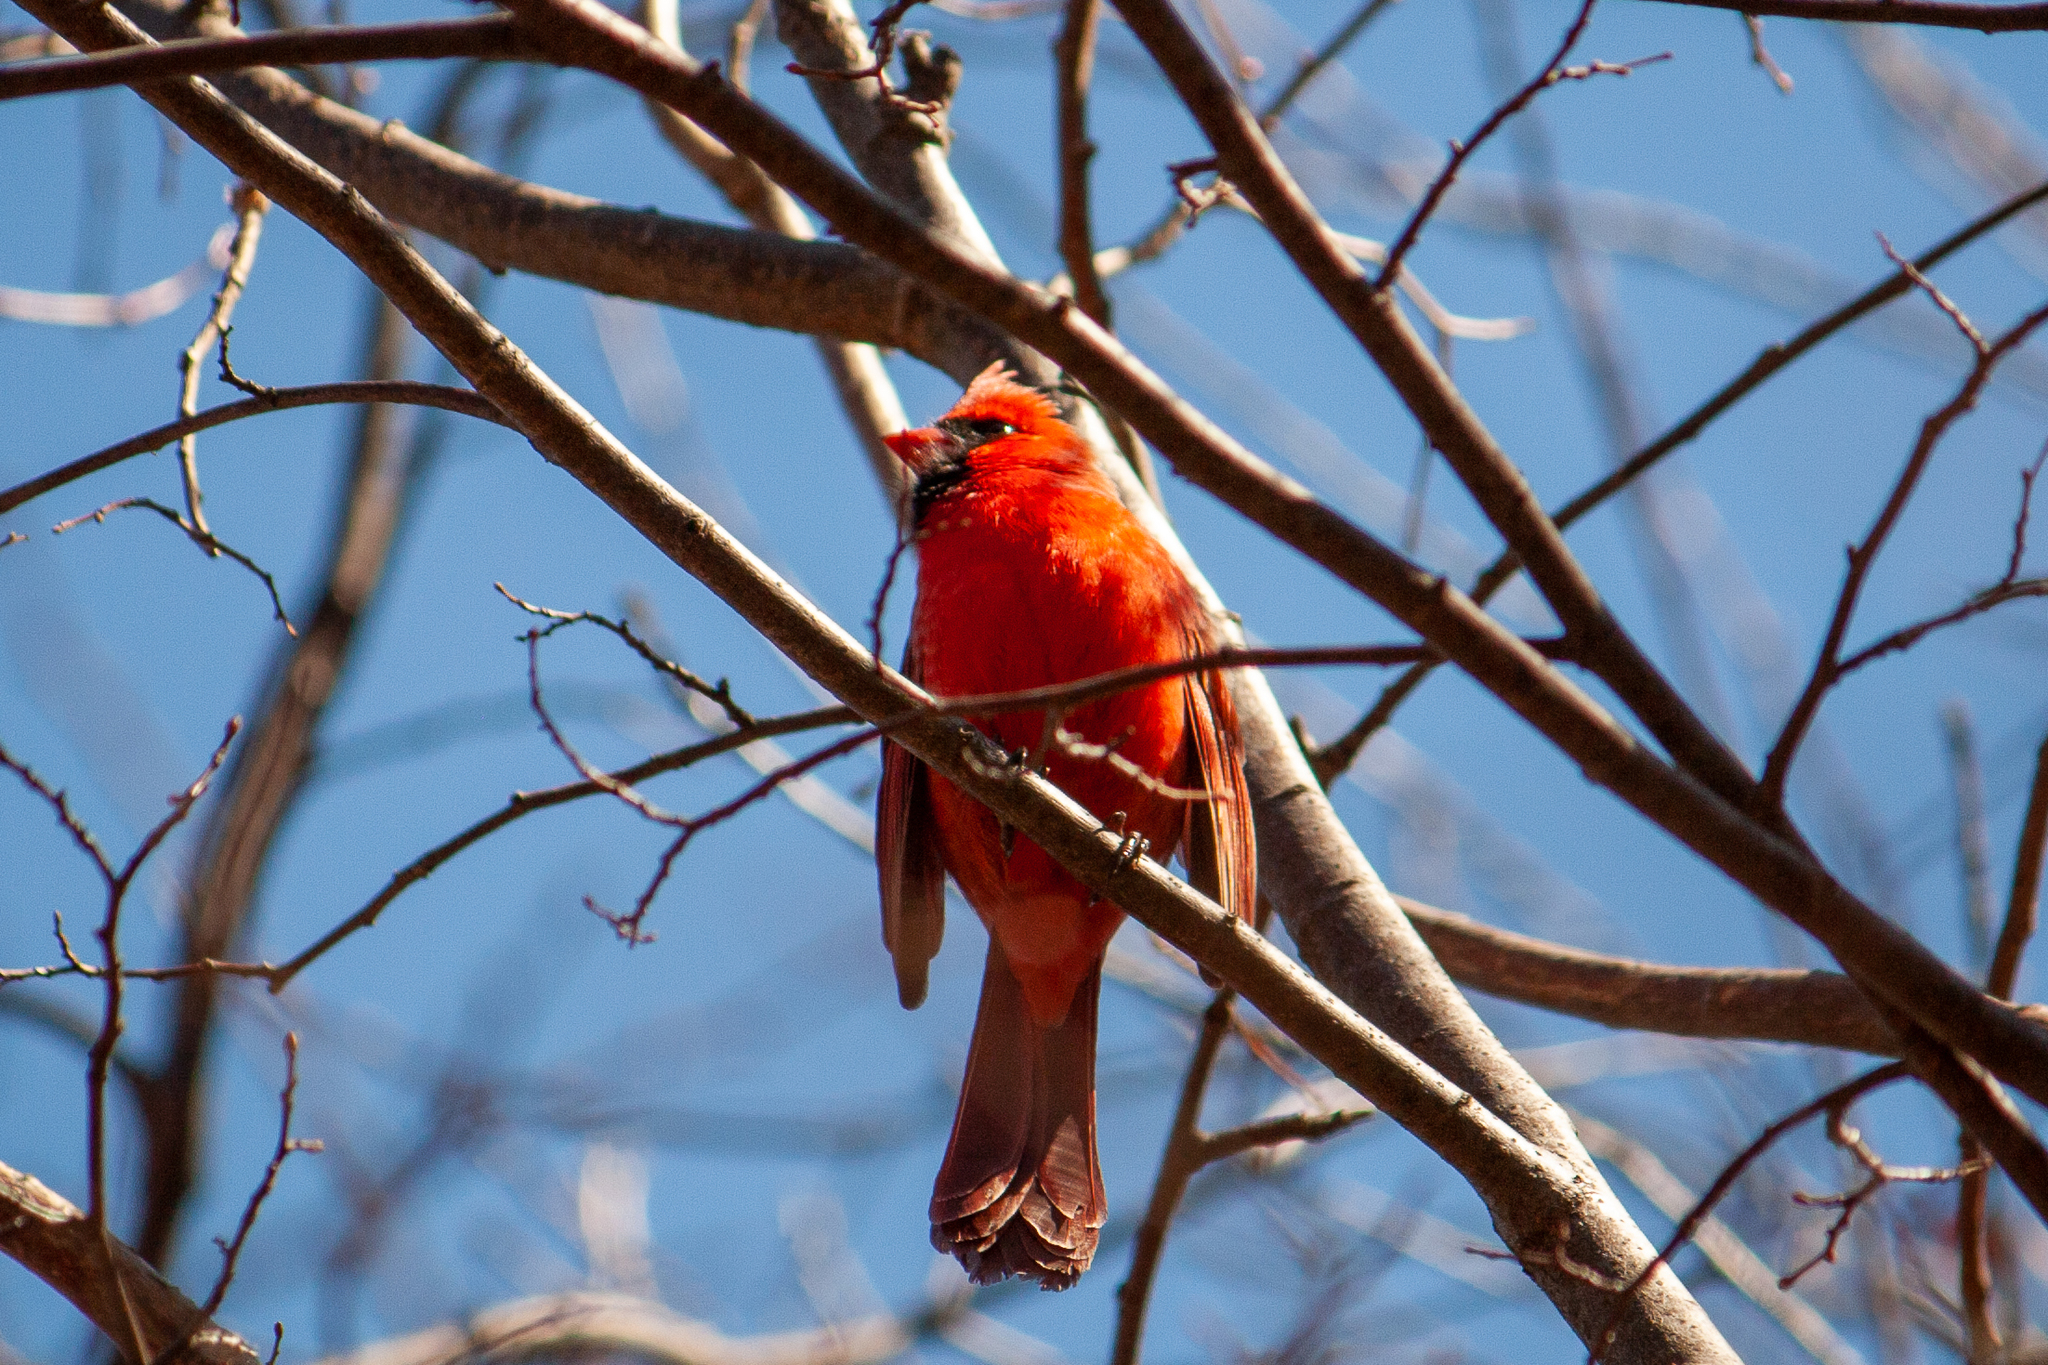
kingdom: Animalia
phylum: Chordata
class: Aves
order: Passeriformes
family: Cardinalidae
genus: Cardinalis
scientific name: Cardinalis cardinalis
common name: Northern cardinal
